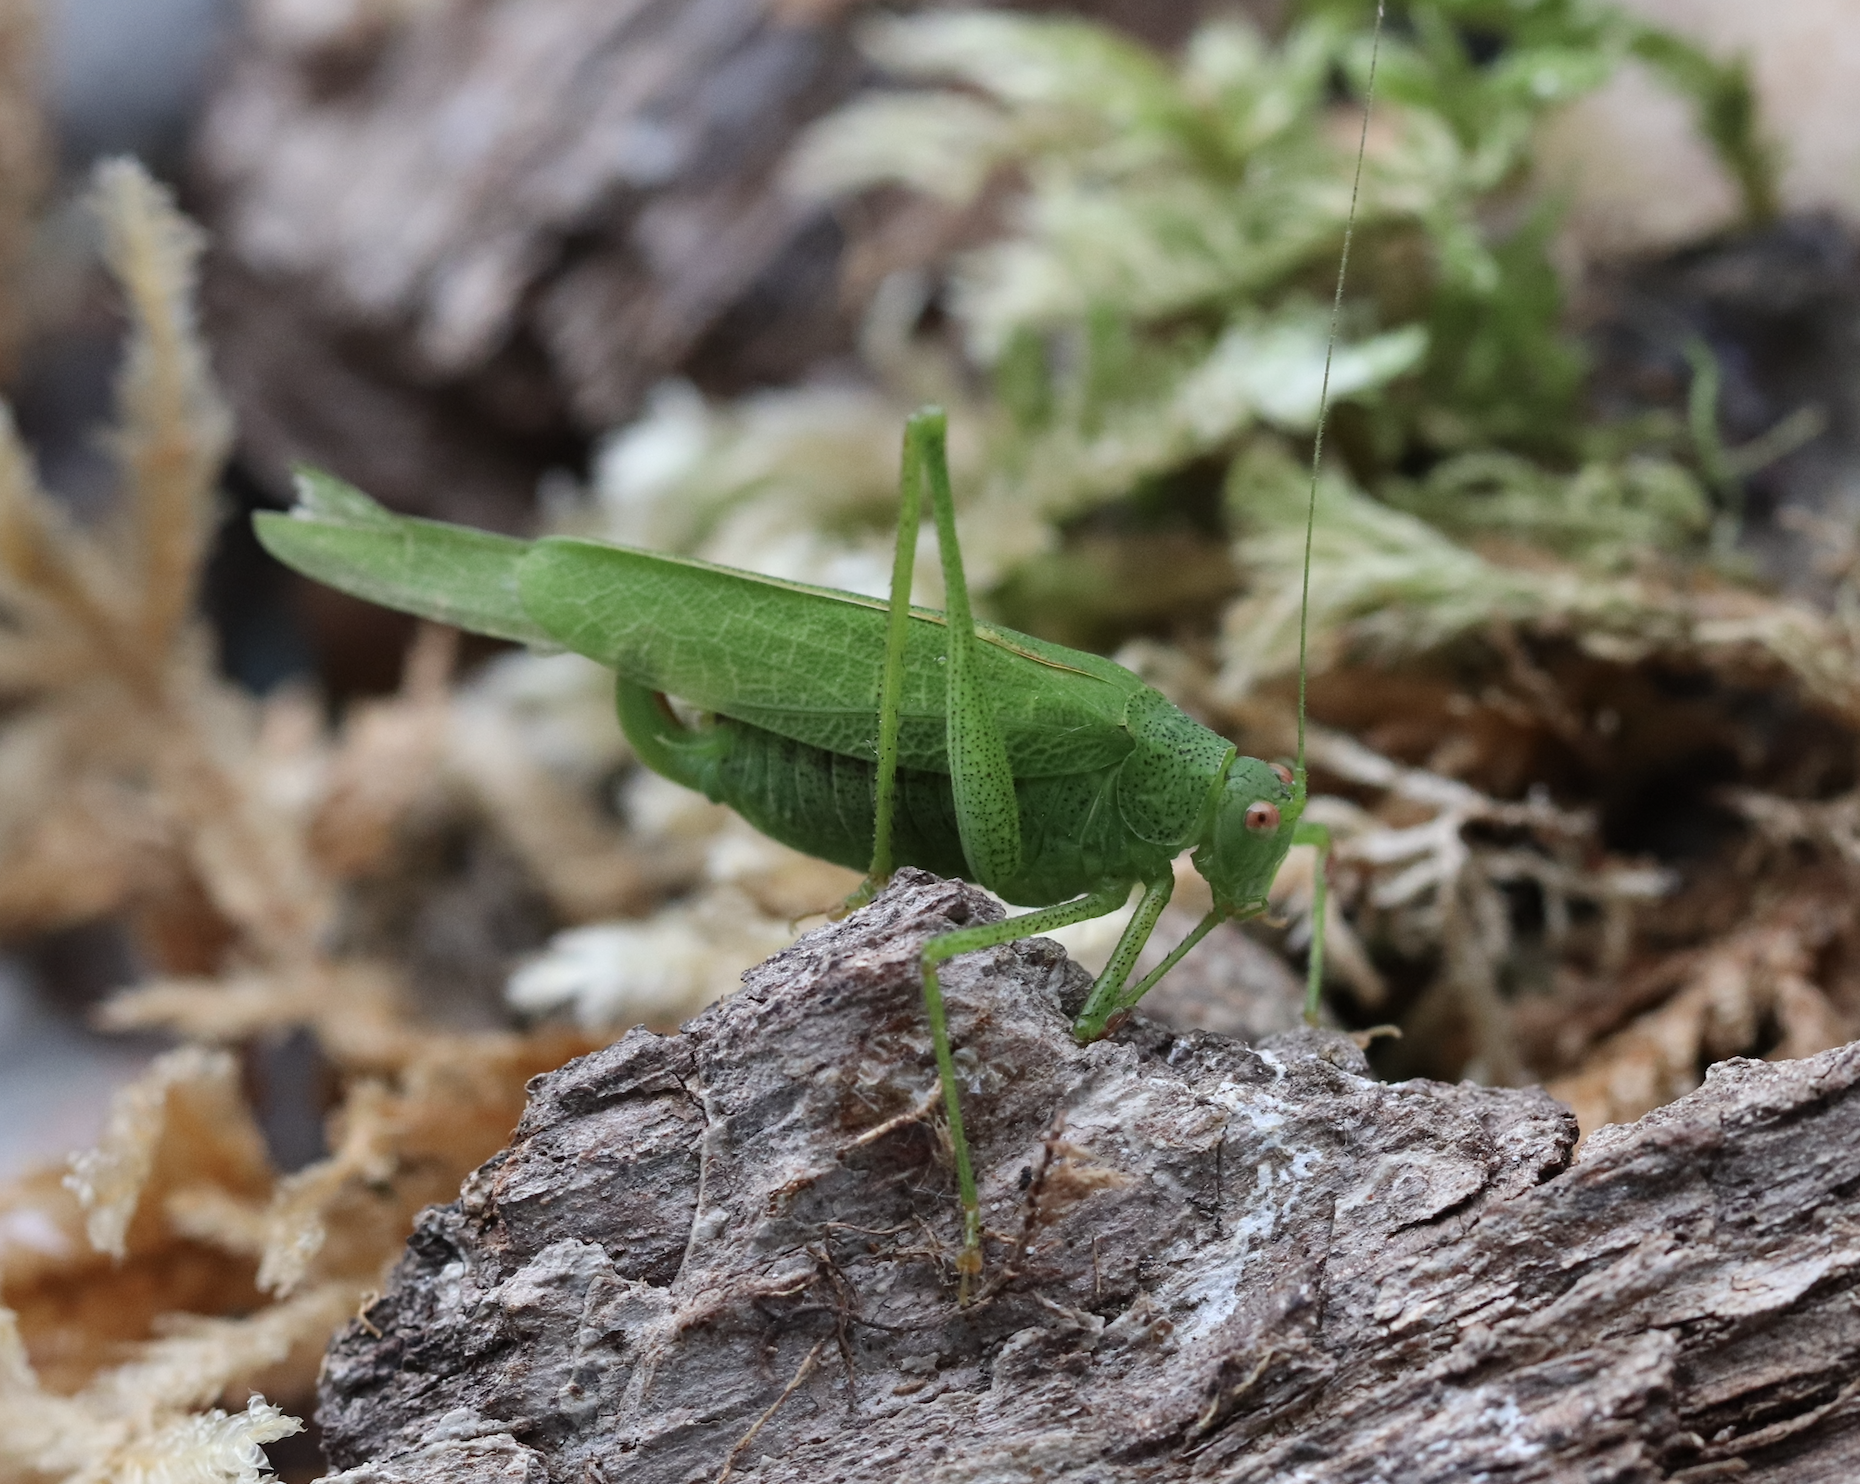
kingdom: Animalia
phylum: Arthropoda
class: Insecta
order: Orthoptera
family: Tettigoniidae
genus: Phaneroptera
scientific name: Phaneroptera nana
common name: Southern sickle bush-cricket
